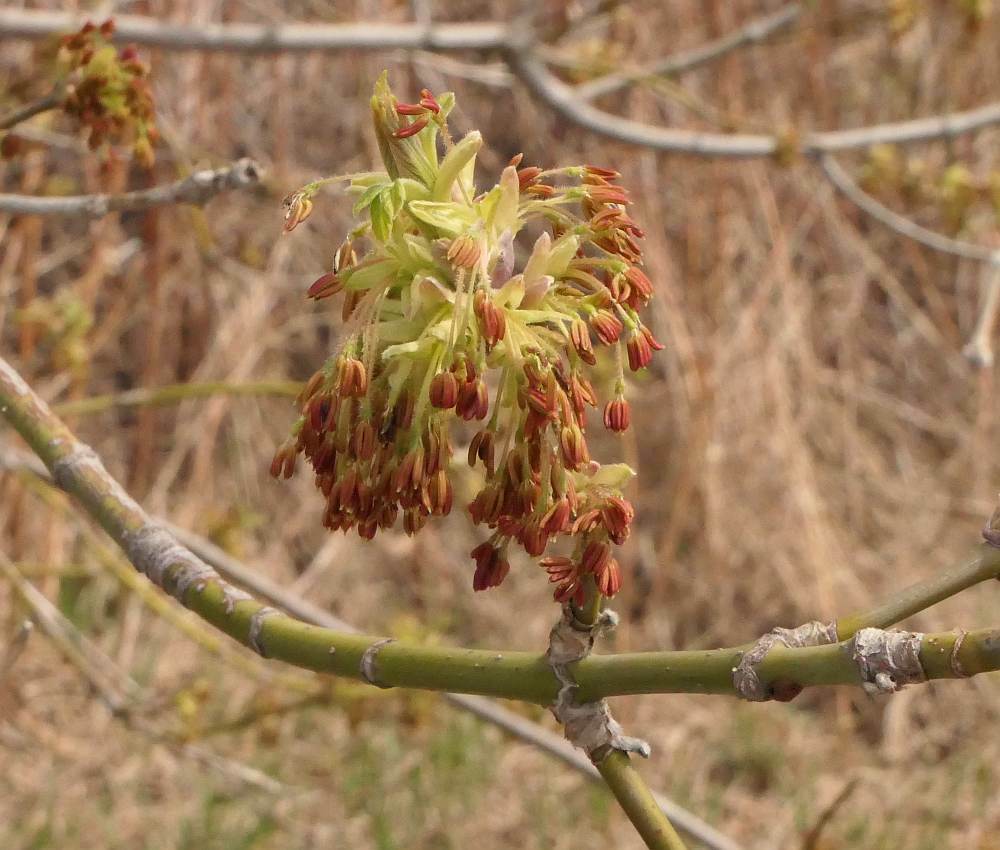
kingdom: Plantae
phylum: Tracheophyta
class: Magnoliopsida
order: Sapindales
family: Sapindaceae
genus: Acer
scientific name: Acer negundo
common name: Ashleaf maple
